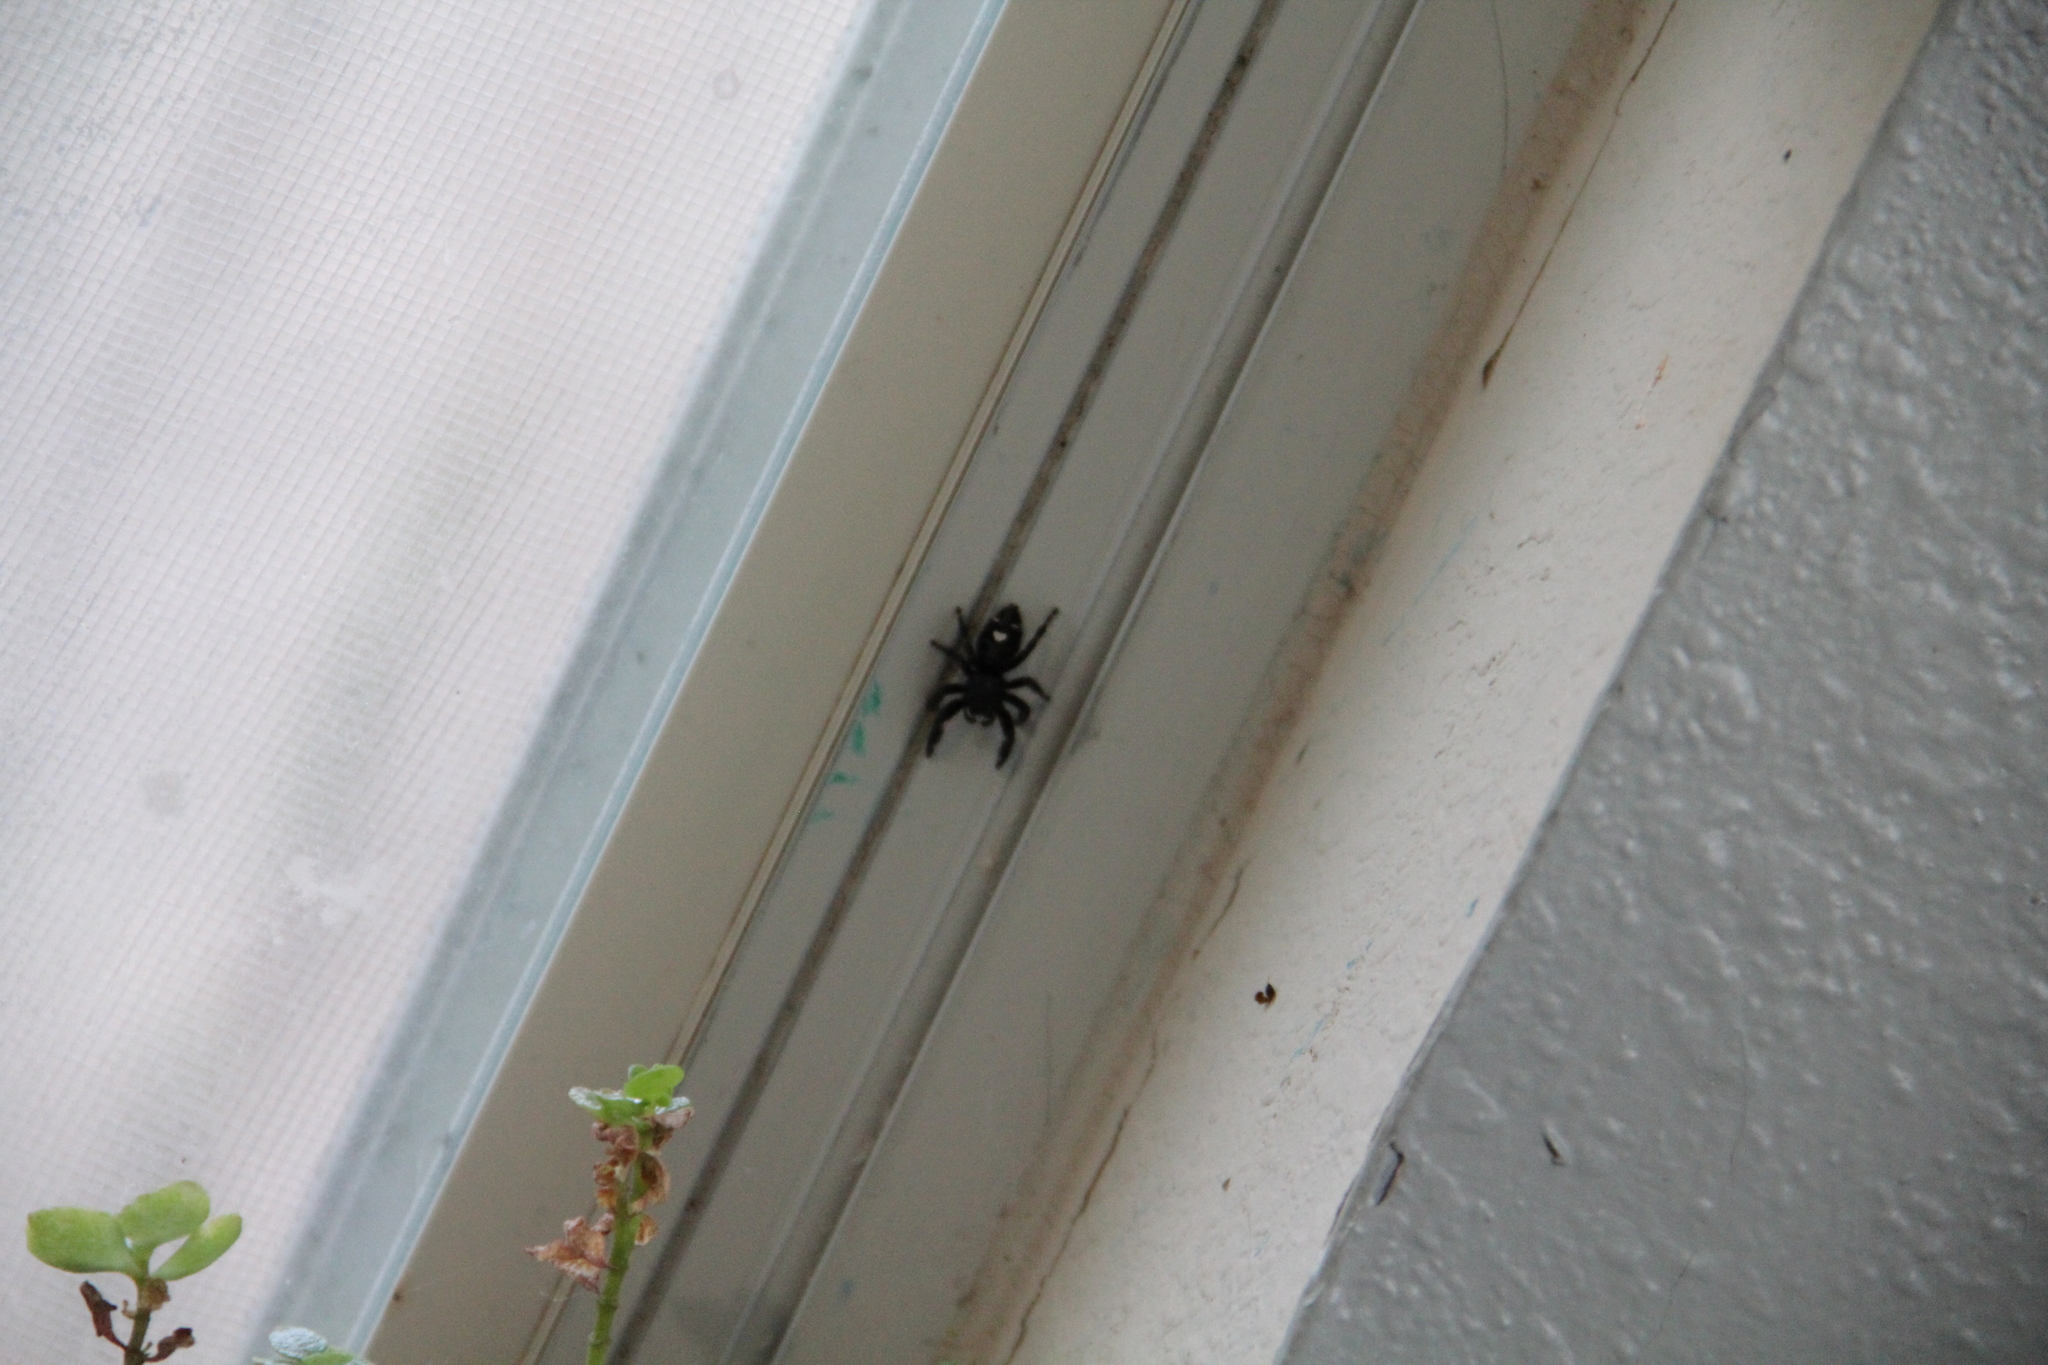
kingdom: Animalia
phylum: Arthropoda
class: Arachnida
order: Araneae
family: Salticidae
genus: Phidippus
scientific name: Phidippus audax
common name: Bold jumper
